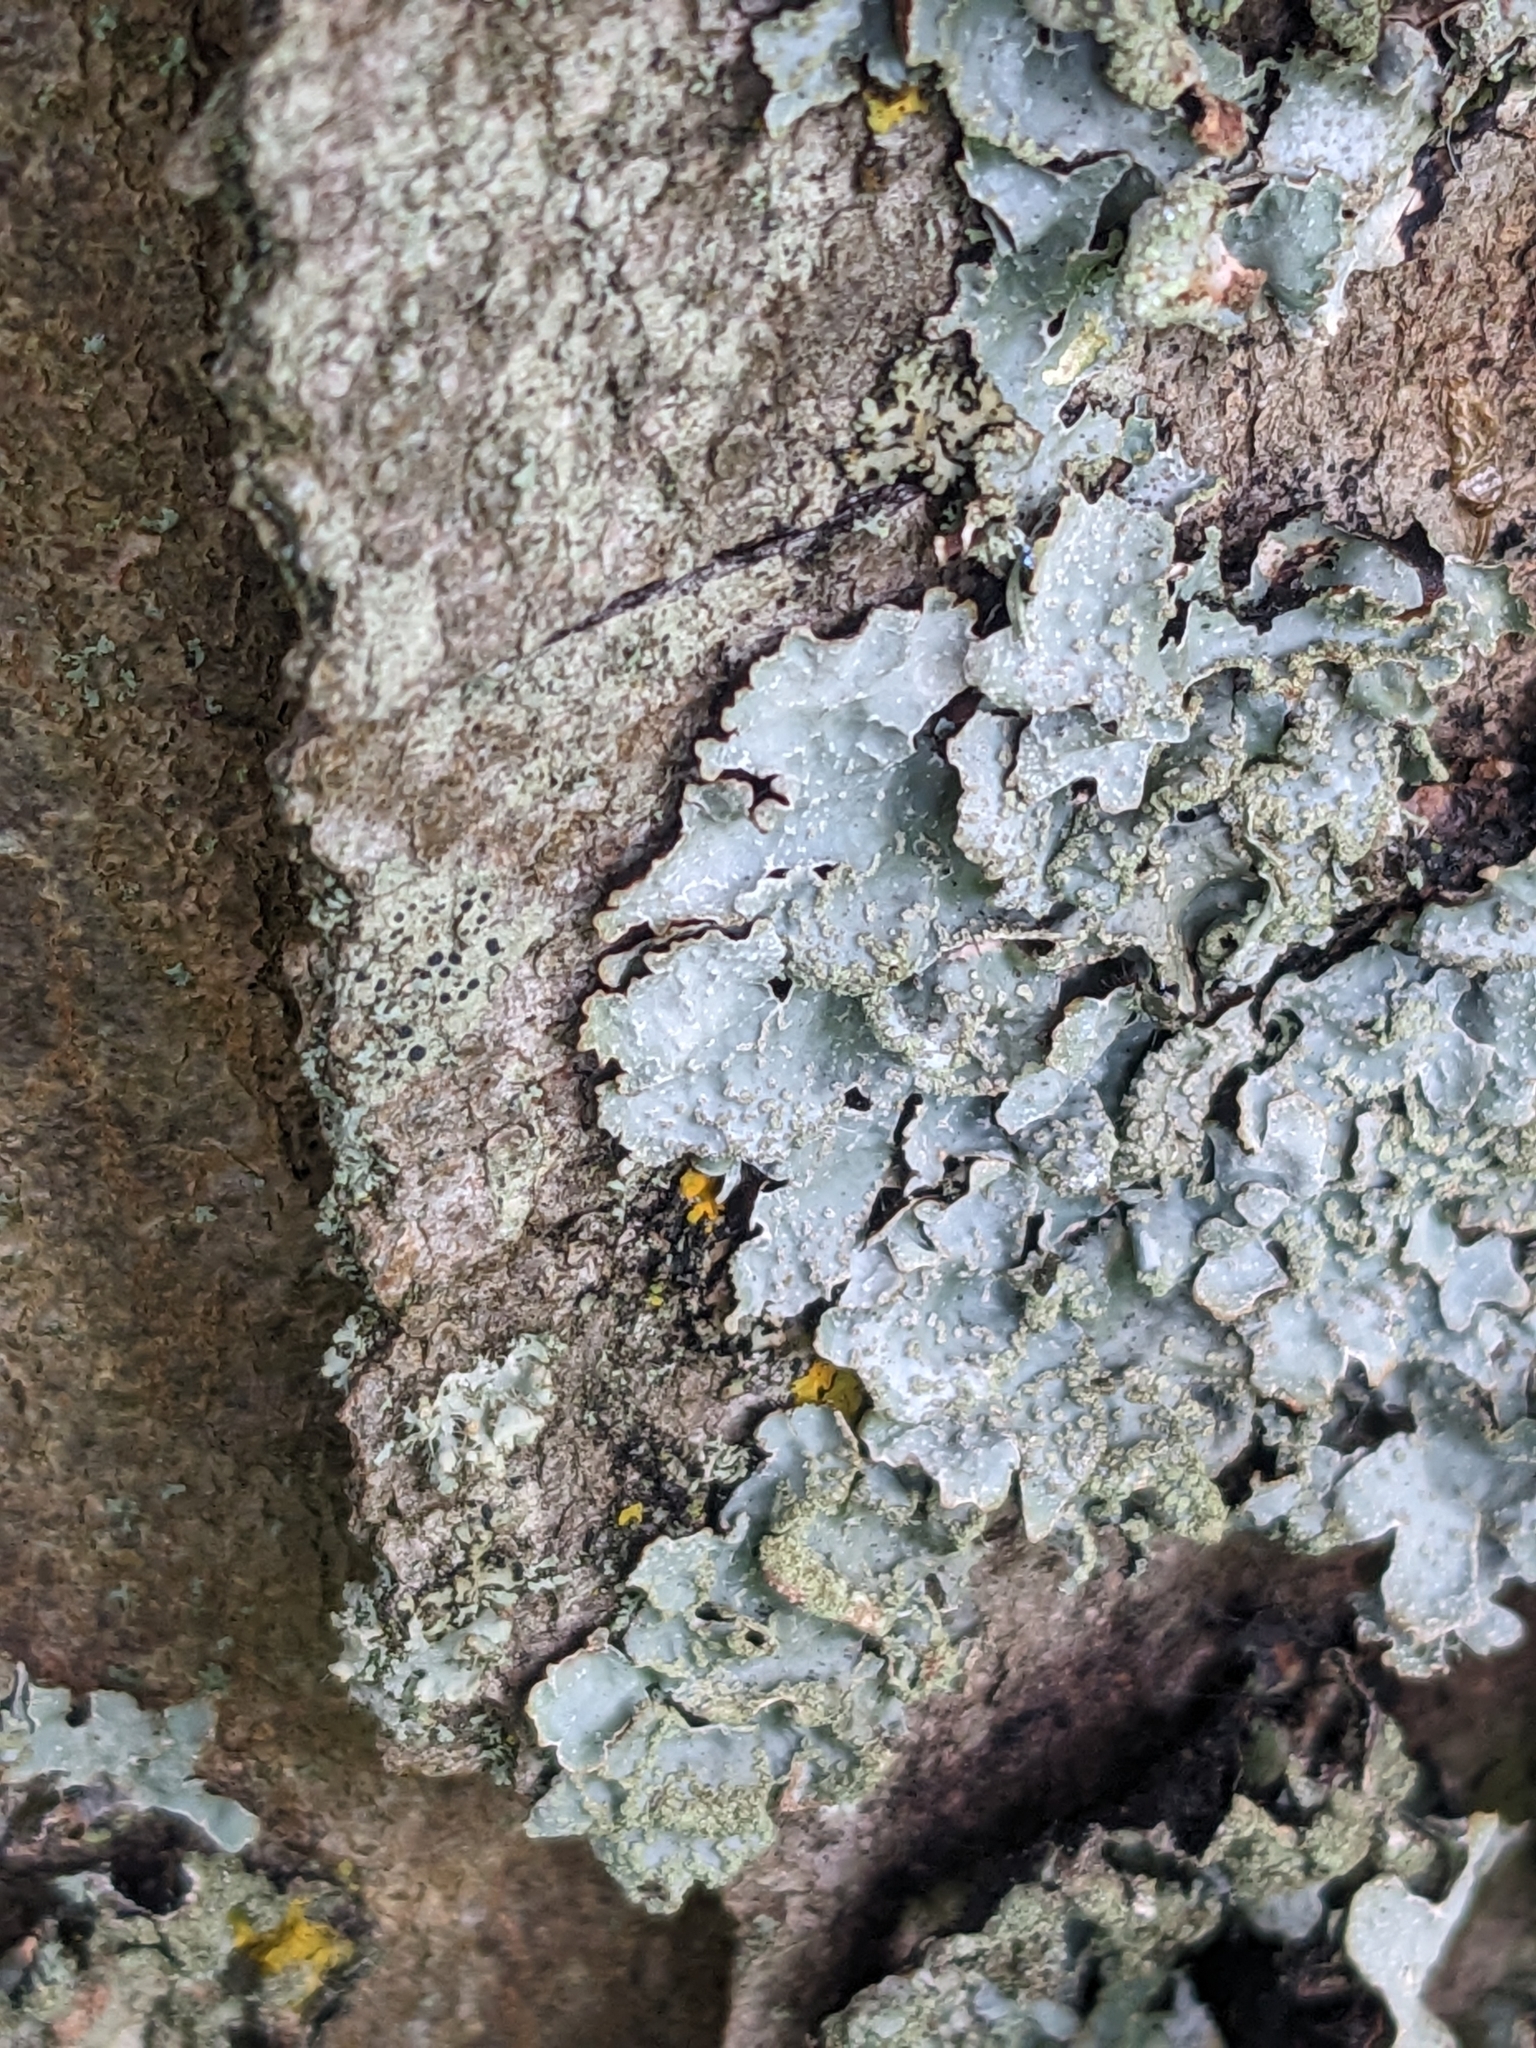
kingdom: Fungi
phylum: Ascomycota
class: Lecanoromycetes
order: Lecanorales
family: Parmeliaceae
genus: Parmelia
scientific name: Parmelia sulcata
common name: Netted shield lichen
